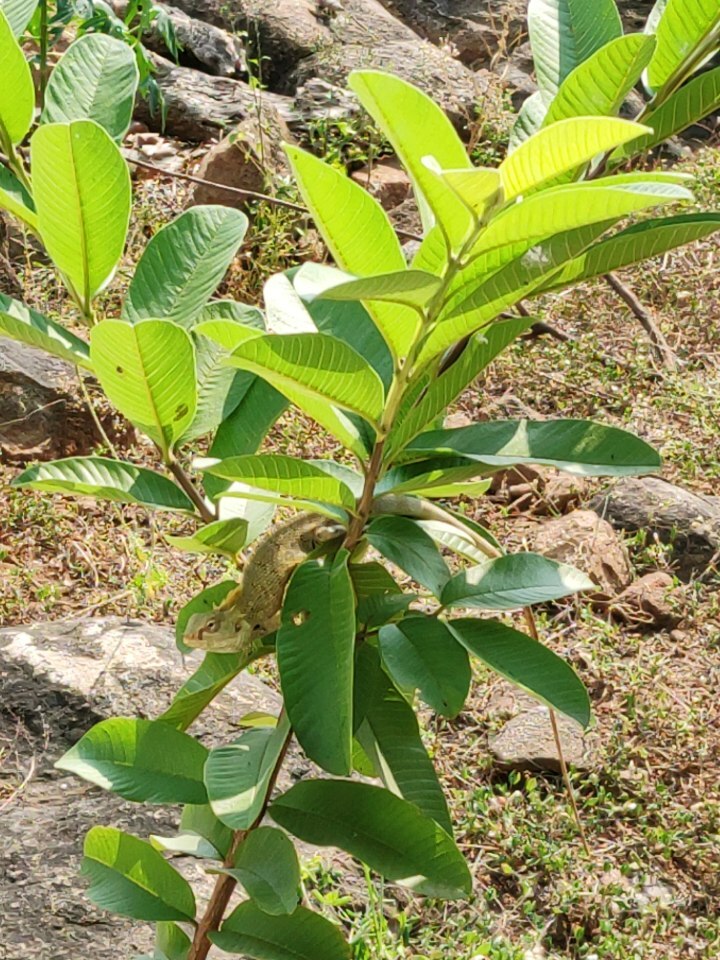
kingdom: Animalia
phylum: Chordata
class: Squamata
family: Agamidae
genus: Calotes
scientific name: Calotes versicolor
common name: Oriental garden lizard
